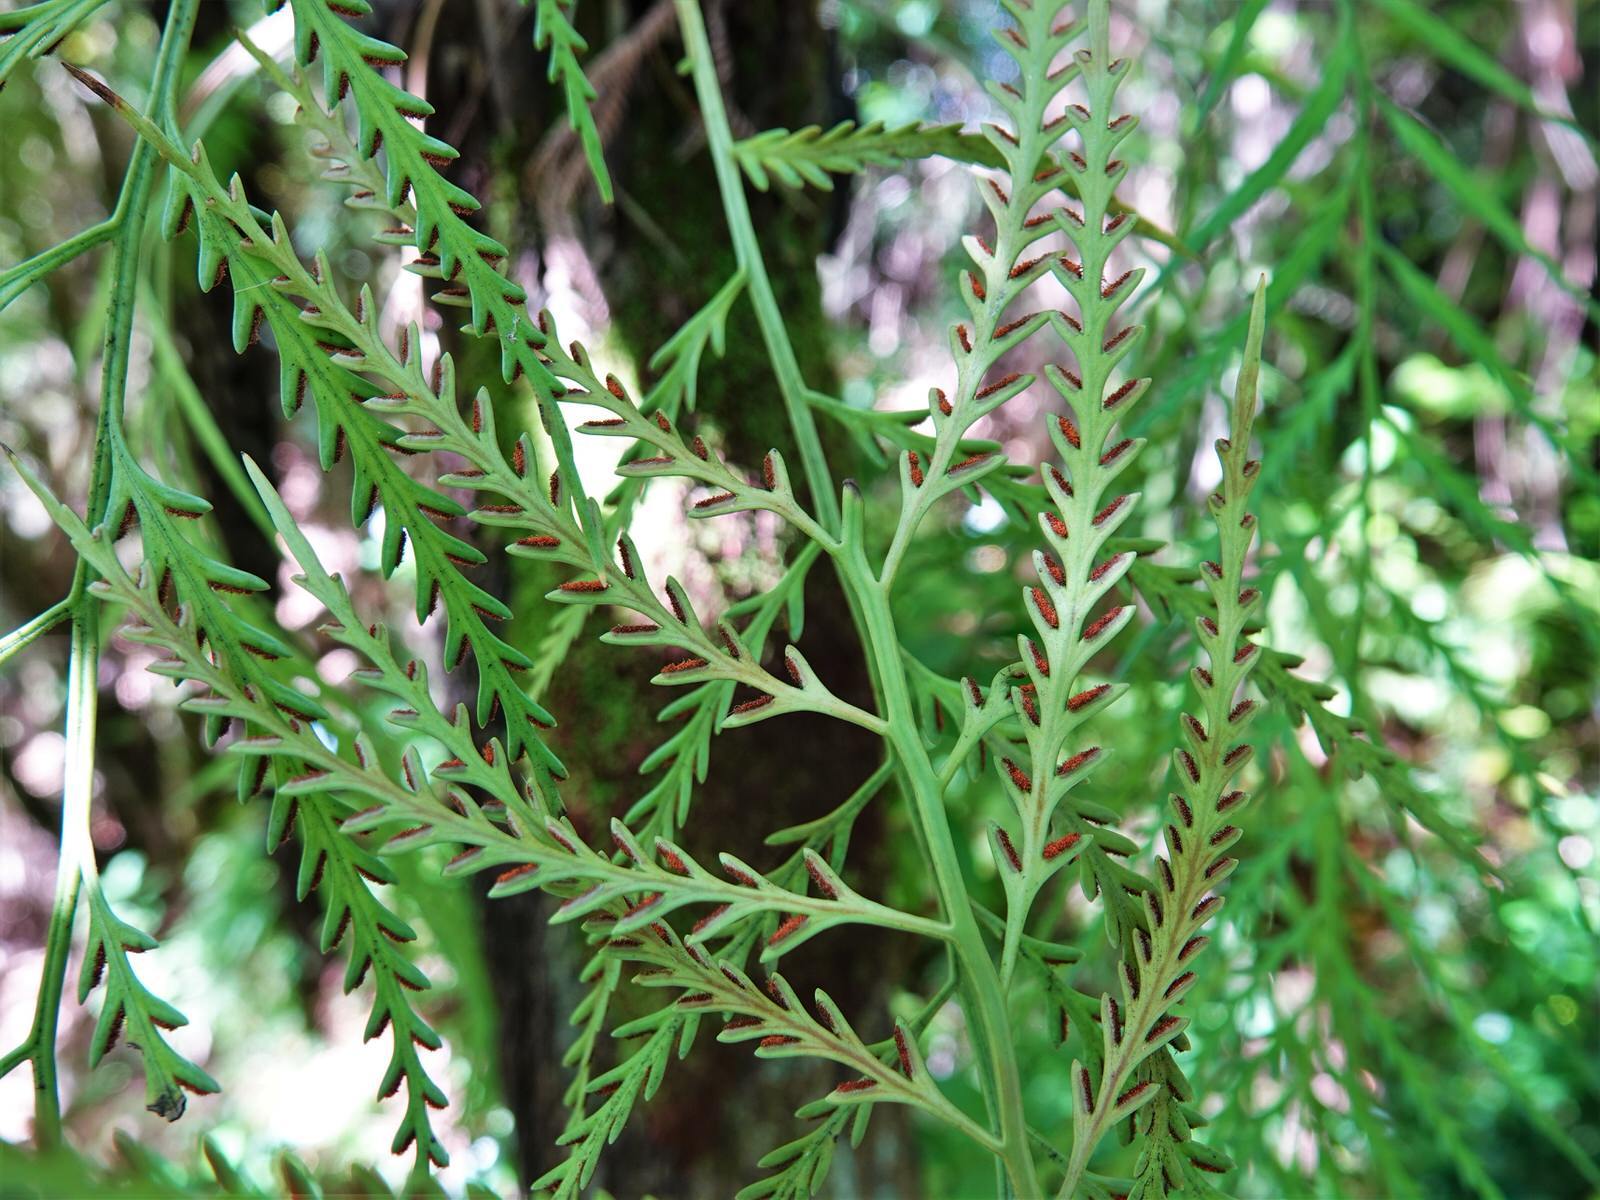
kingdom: Plantae
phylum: Tracheophyta
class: Polypodiopsida
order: Polypodiales
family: Aspleniaceae
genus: Asplenium
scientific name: Asplenium flaccidum
